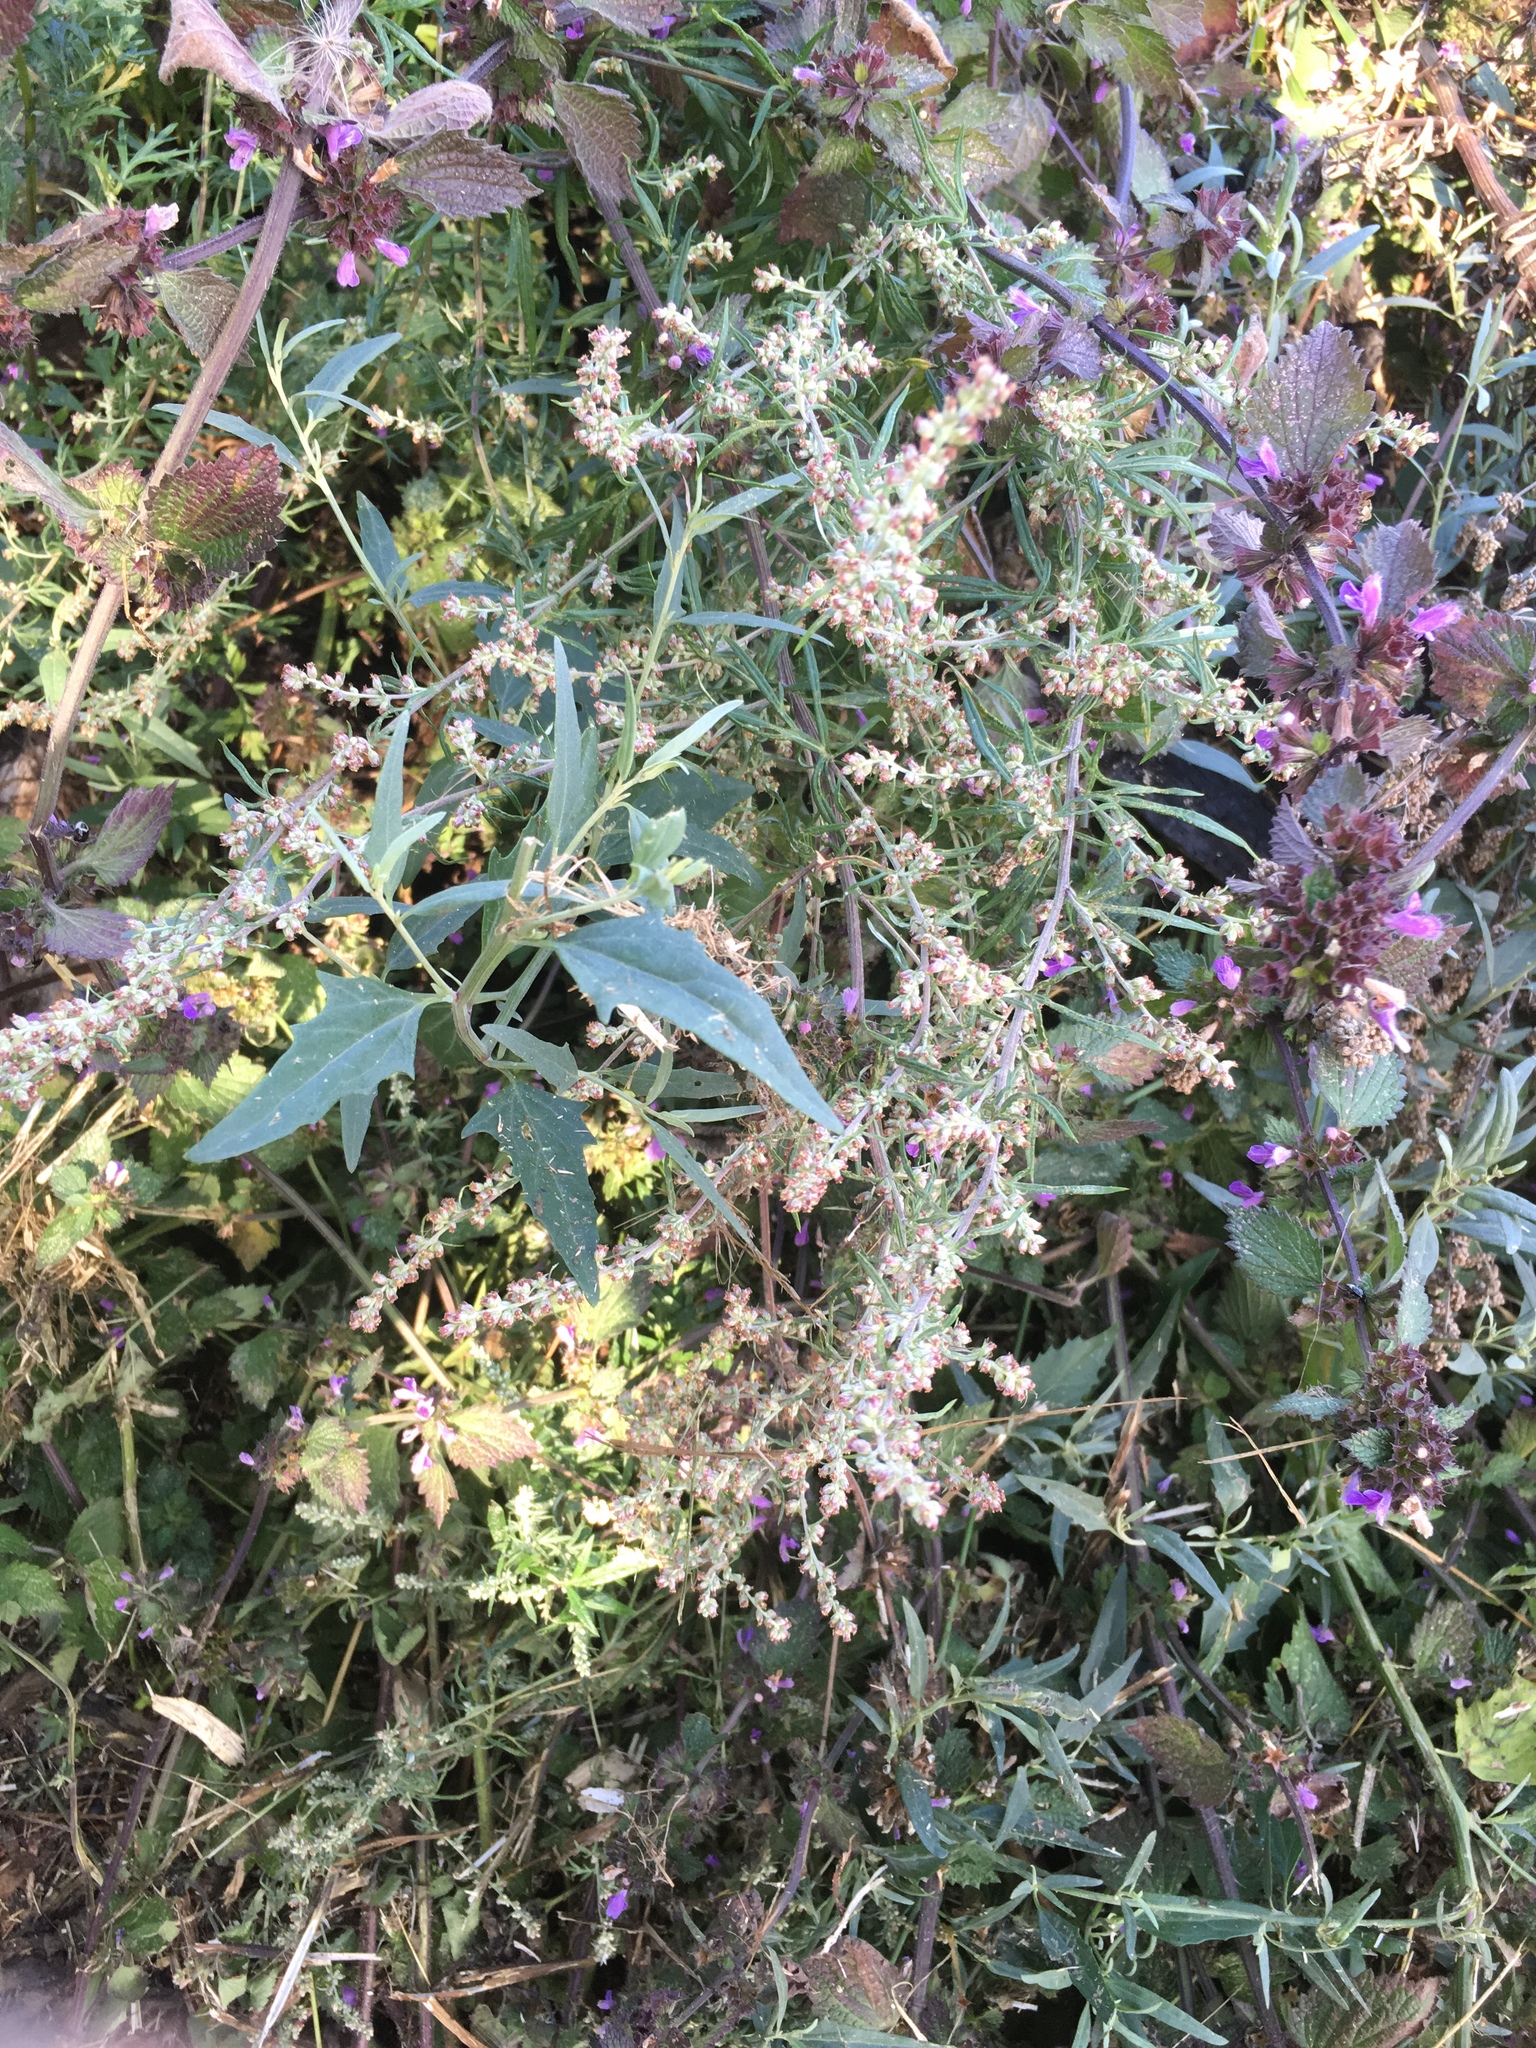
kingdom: Plantae
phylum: Tracheophyta
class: Magnoliopsida
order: Asterales
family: Asteraceae
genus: Artemisia
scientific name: Artemisia vulgaris
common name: Mugwort
